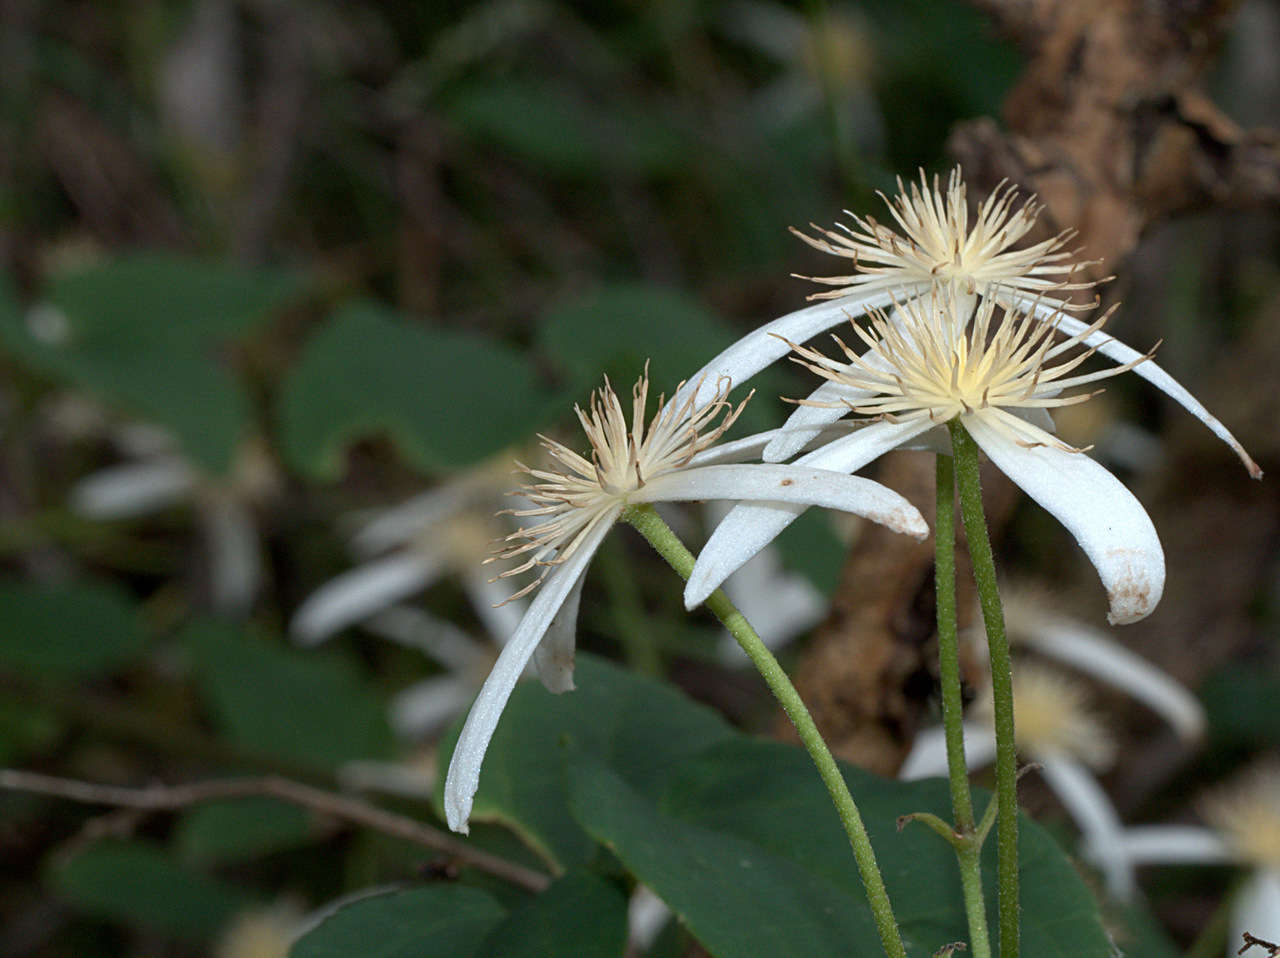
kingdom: Plantae
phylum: Tracheophyta
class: Magnoliopsida
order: Ranunculales
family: Ranunculaceae
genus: Clematis
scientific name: Clematis aristata
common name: Mountain clematis
